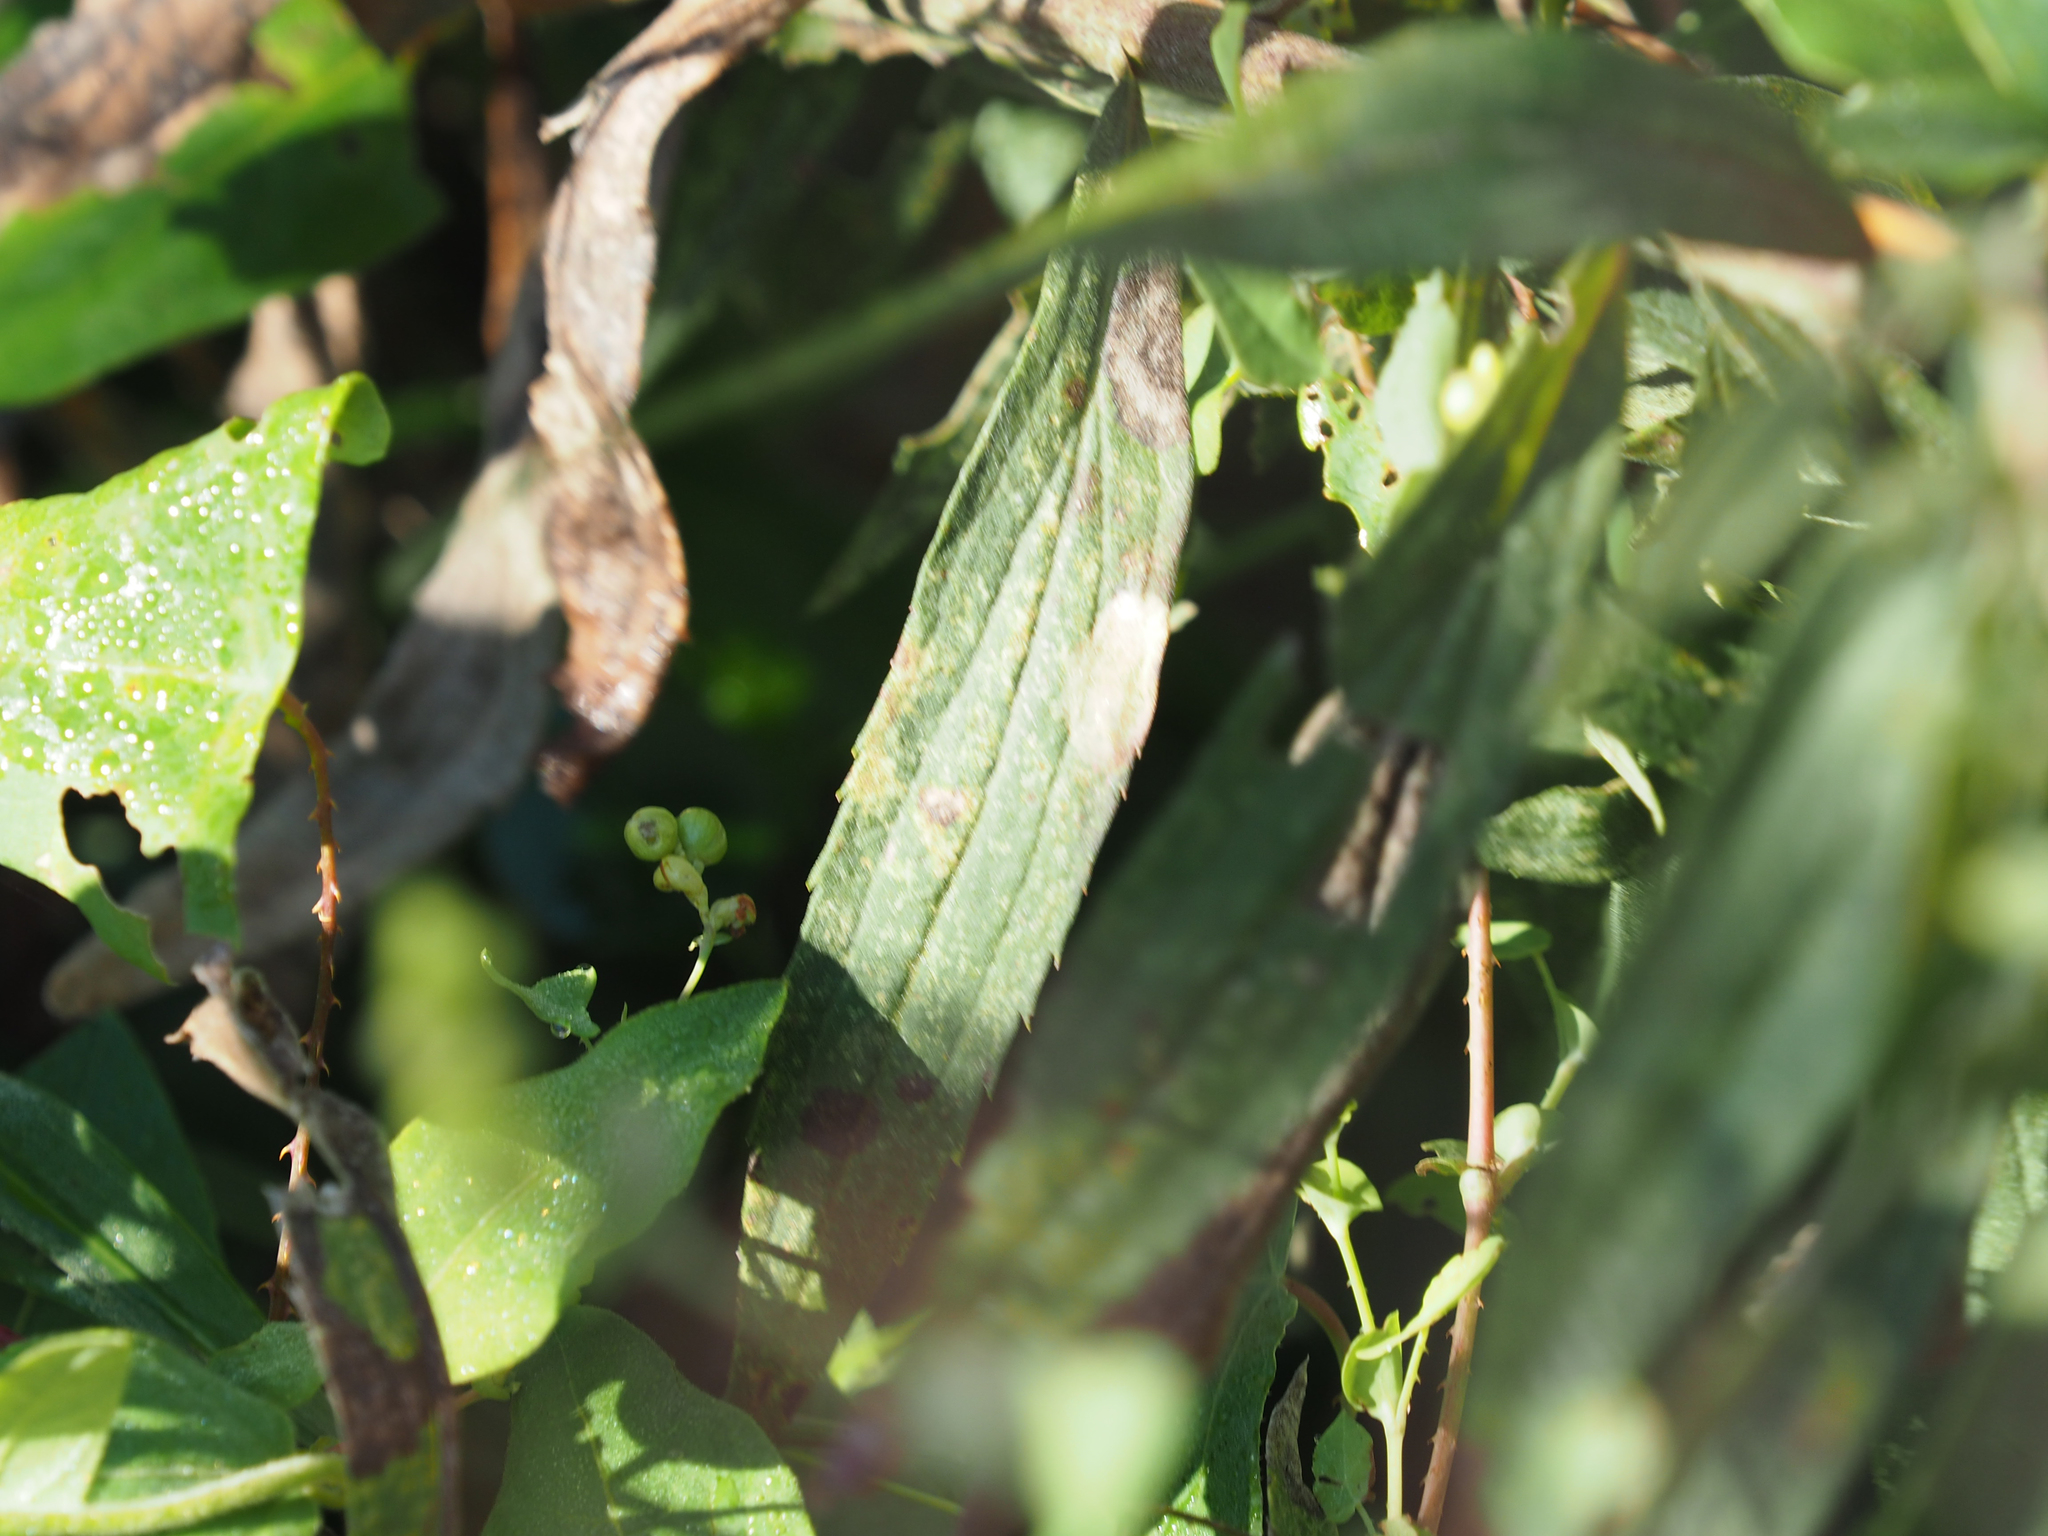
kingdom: Plantae
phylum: Tracheophyta
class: Magnoliopsida
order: Asterales
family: Asteraceae
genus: Solidago
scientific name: Solidago altissima
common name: Late goldenrod
